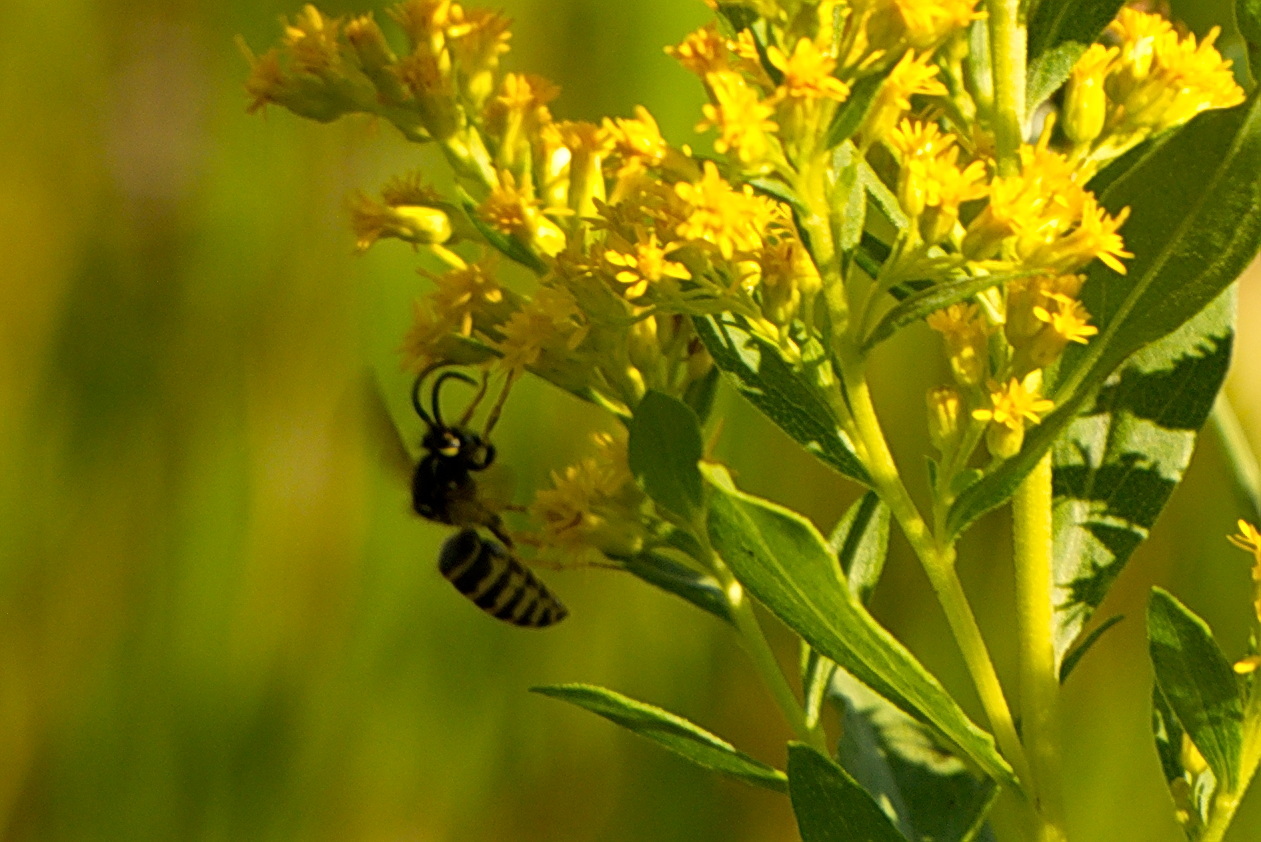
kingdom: Animalia
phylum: Arthropoda
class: Insecta
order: Hymenoptera
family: Vespidae
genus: Dolichovespula
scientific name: Dolichovespula arenaria
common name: Aerial yellowjacket
